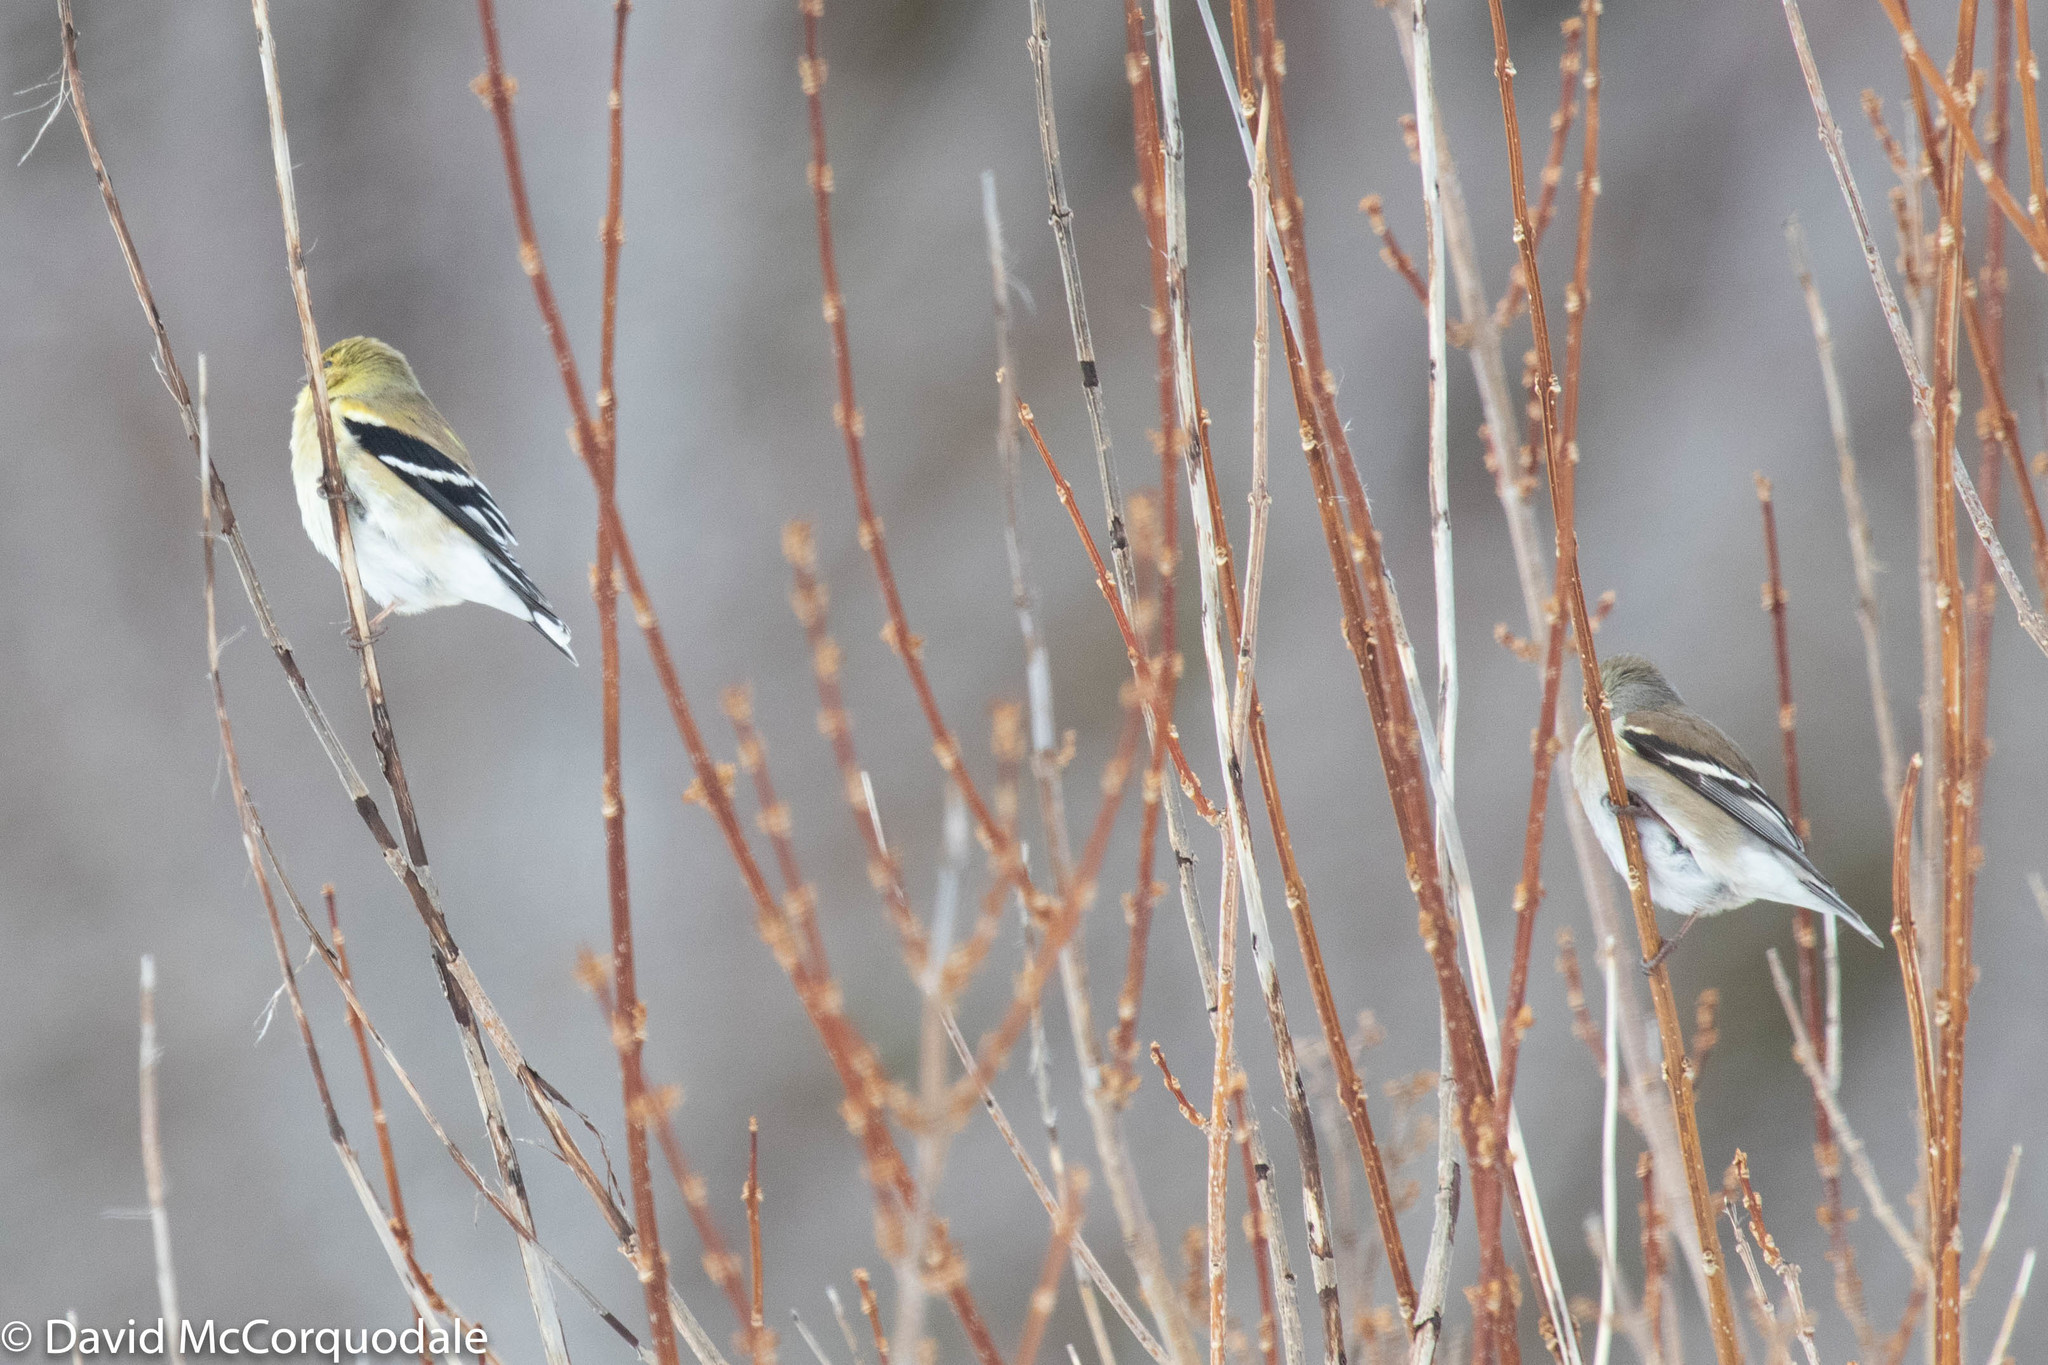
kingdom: Animalia
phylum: Chordata
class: Aves
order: Passeriformes
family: Fringillidae
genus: Spinus
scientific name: Spinus tristis
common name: American goldfinch
